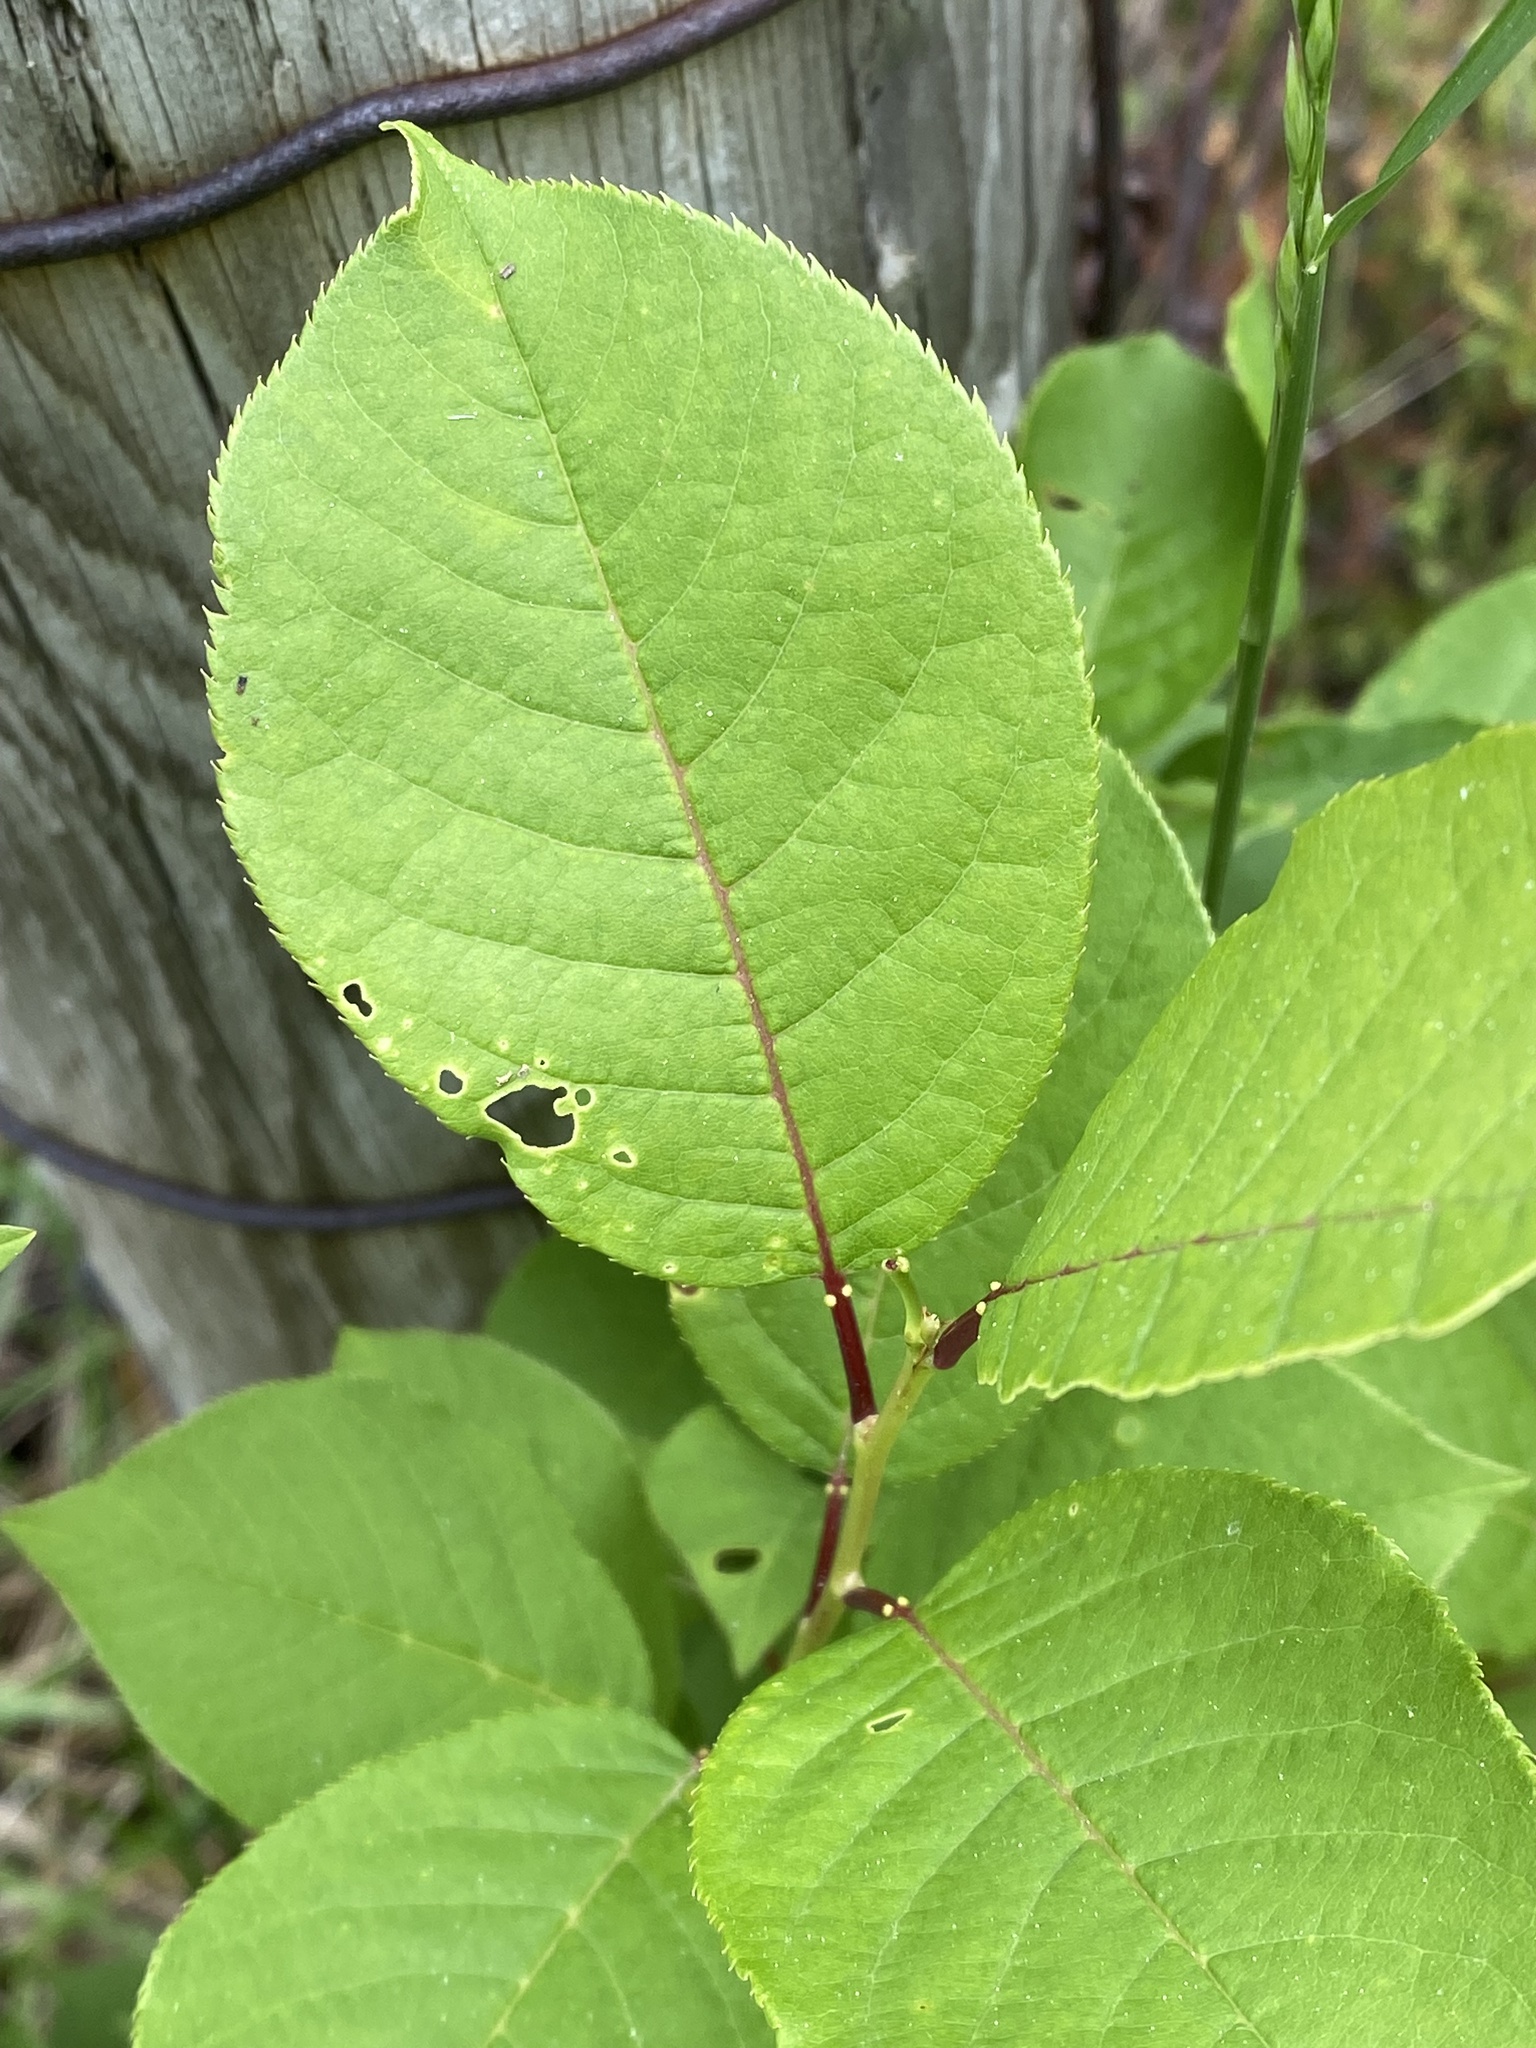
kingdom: Plantae
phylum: Tracheophyta
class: Magnoliopsida
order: Rosales
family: Rosaceae
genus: Prunus
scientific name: Prunus virginiana
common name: Chokecherry
